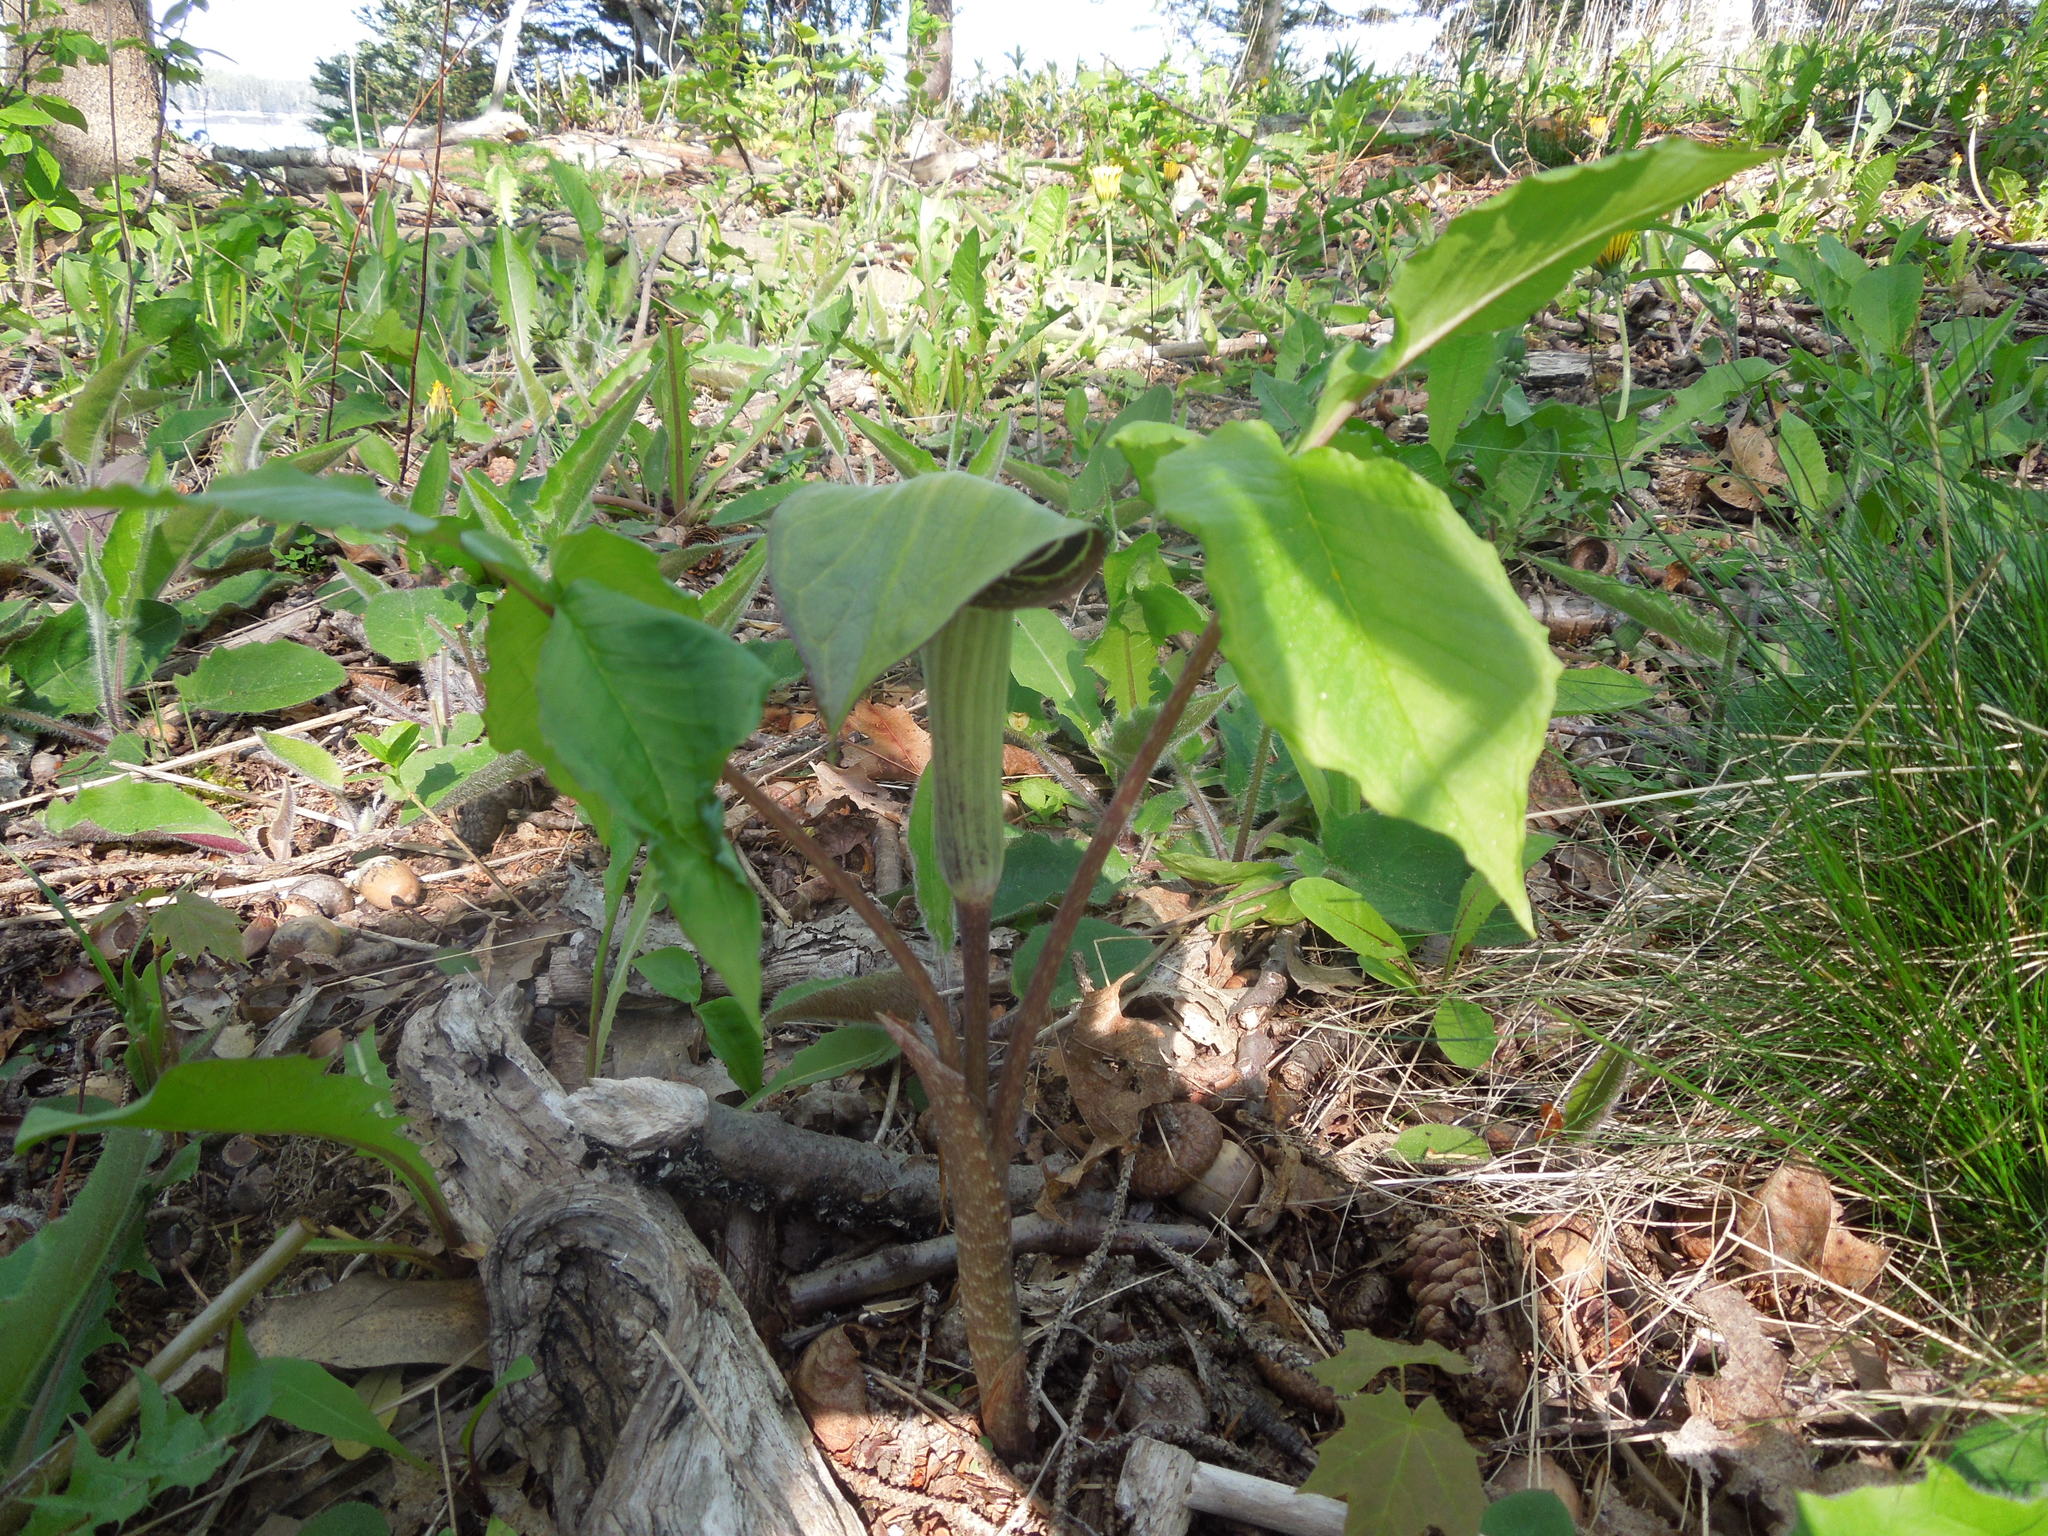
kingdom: Plantae
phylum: Tracheophyta
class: Liliopsida
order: Alismatales
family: Araceae
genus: Arisaema
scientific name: Arisaema triphyllum
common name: Jack-in-the-pulpit
